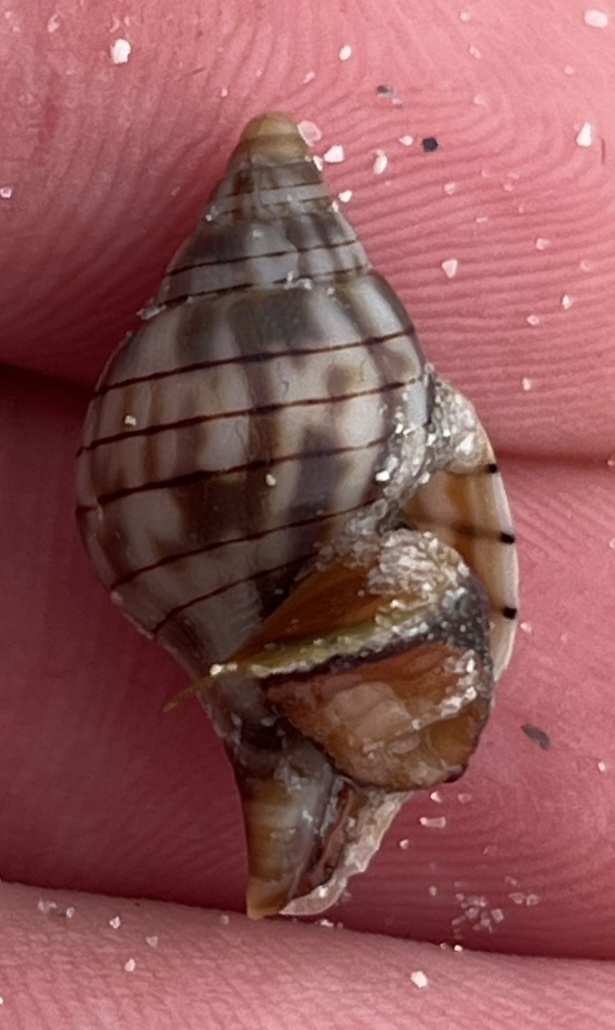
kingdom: Animalia
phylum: Mollusca
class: Gastropoda
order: Neogastropoda
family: Fasciolariidae
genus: Cinctura
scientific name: Cinctura hunteria
